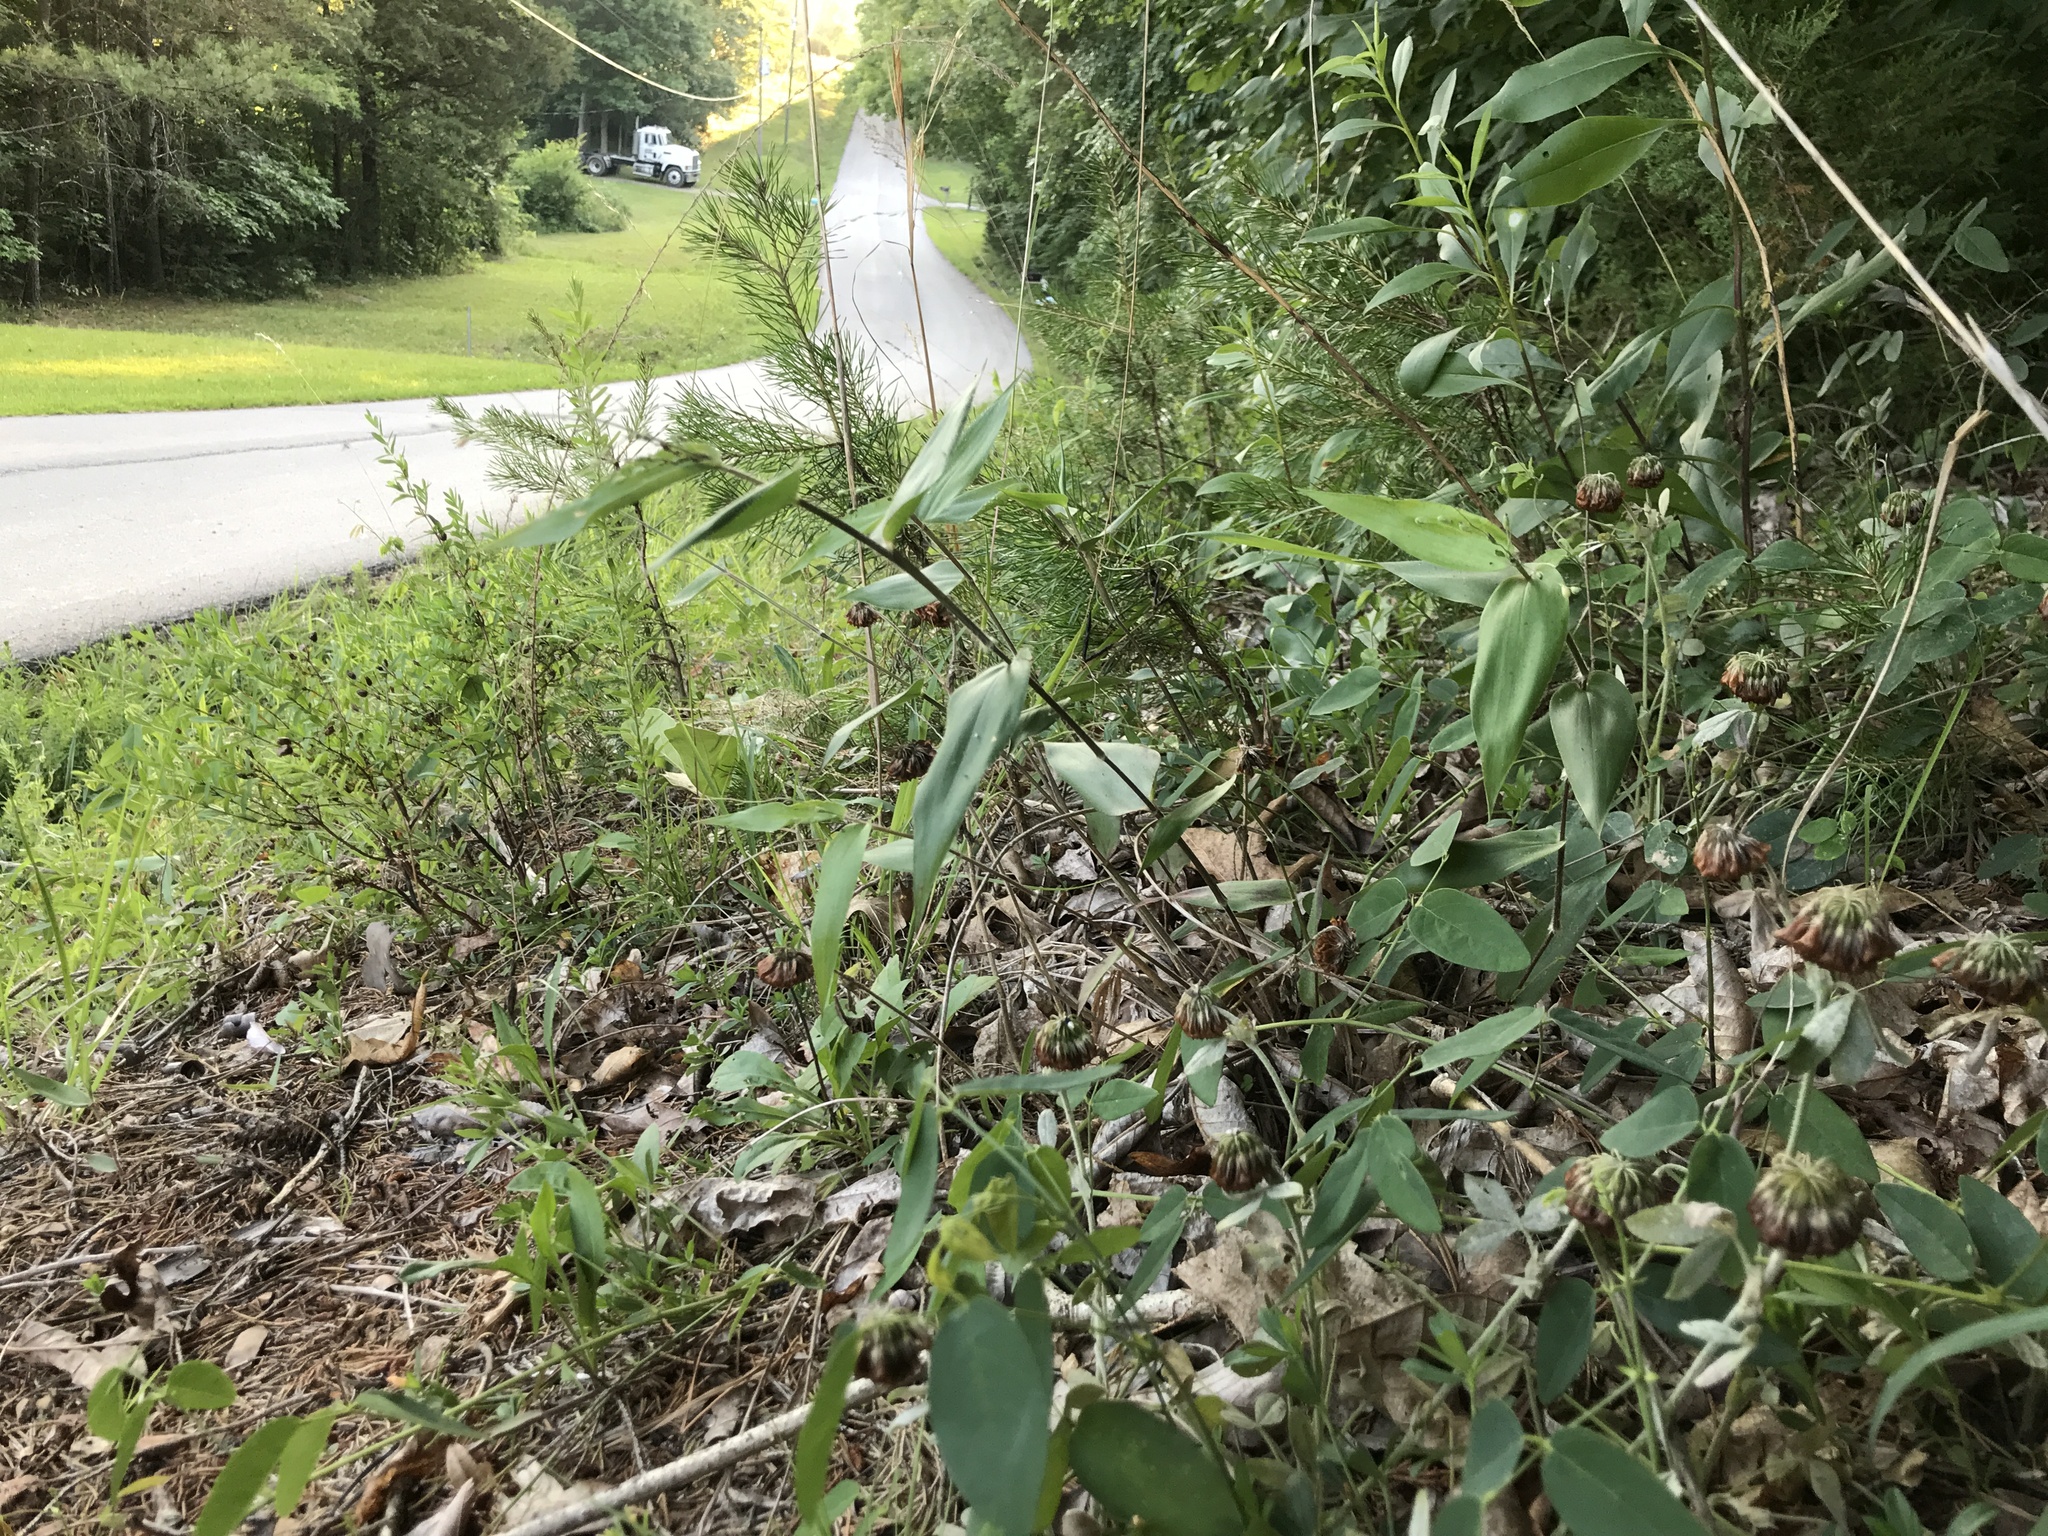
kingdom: Plantae
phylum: Tracheophyta
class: Magnoliopsida
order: Fabales
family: Fabaceae
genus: Trifolium
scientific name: Trifolium reflexum
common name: Buffalo clover
